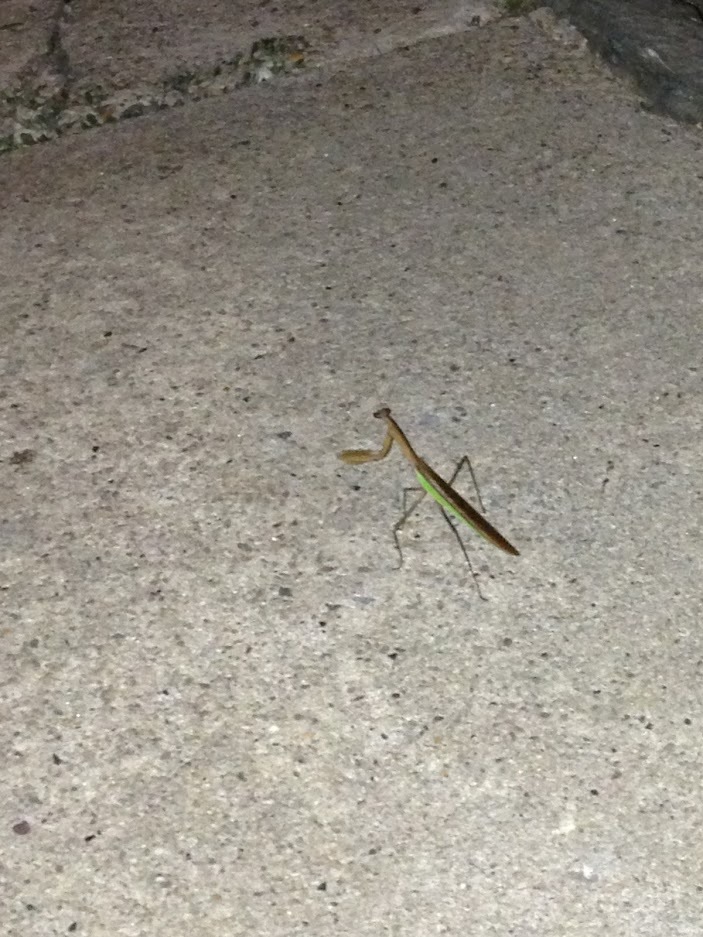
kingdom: Animalia
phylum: Arthropoda
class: Insecta
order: Mantodea
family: Mantidae
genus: Tenodera
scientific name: Tenodera sinensis
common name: Chinese mantis
